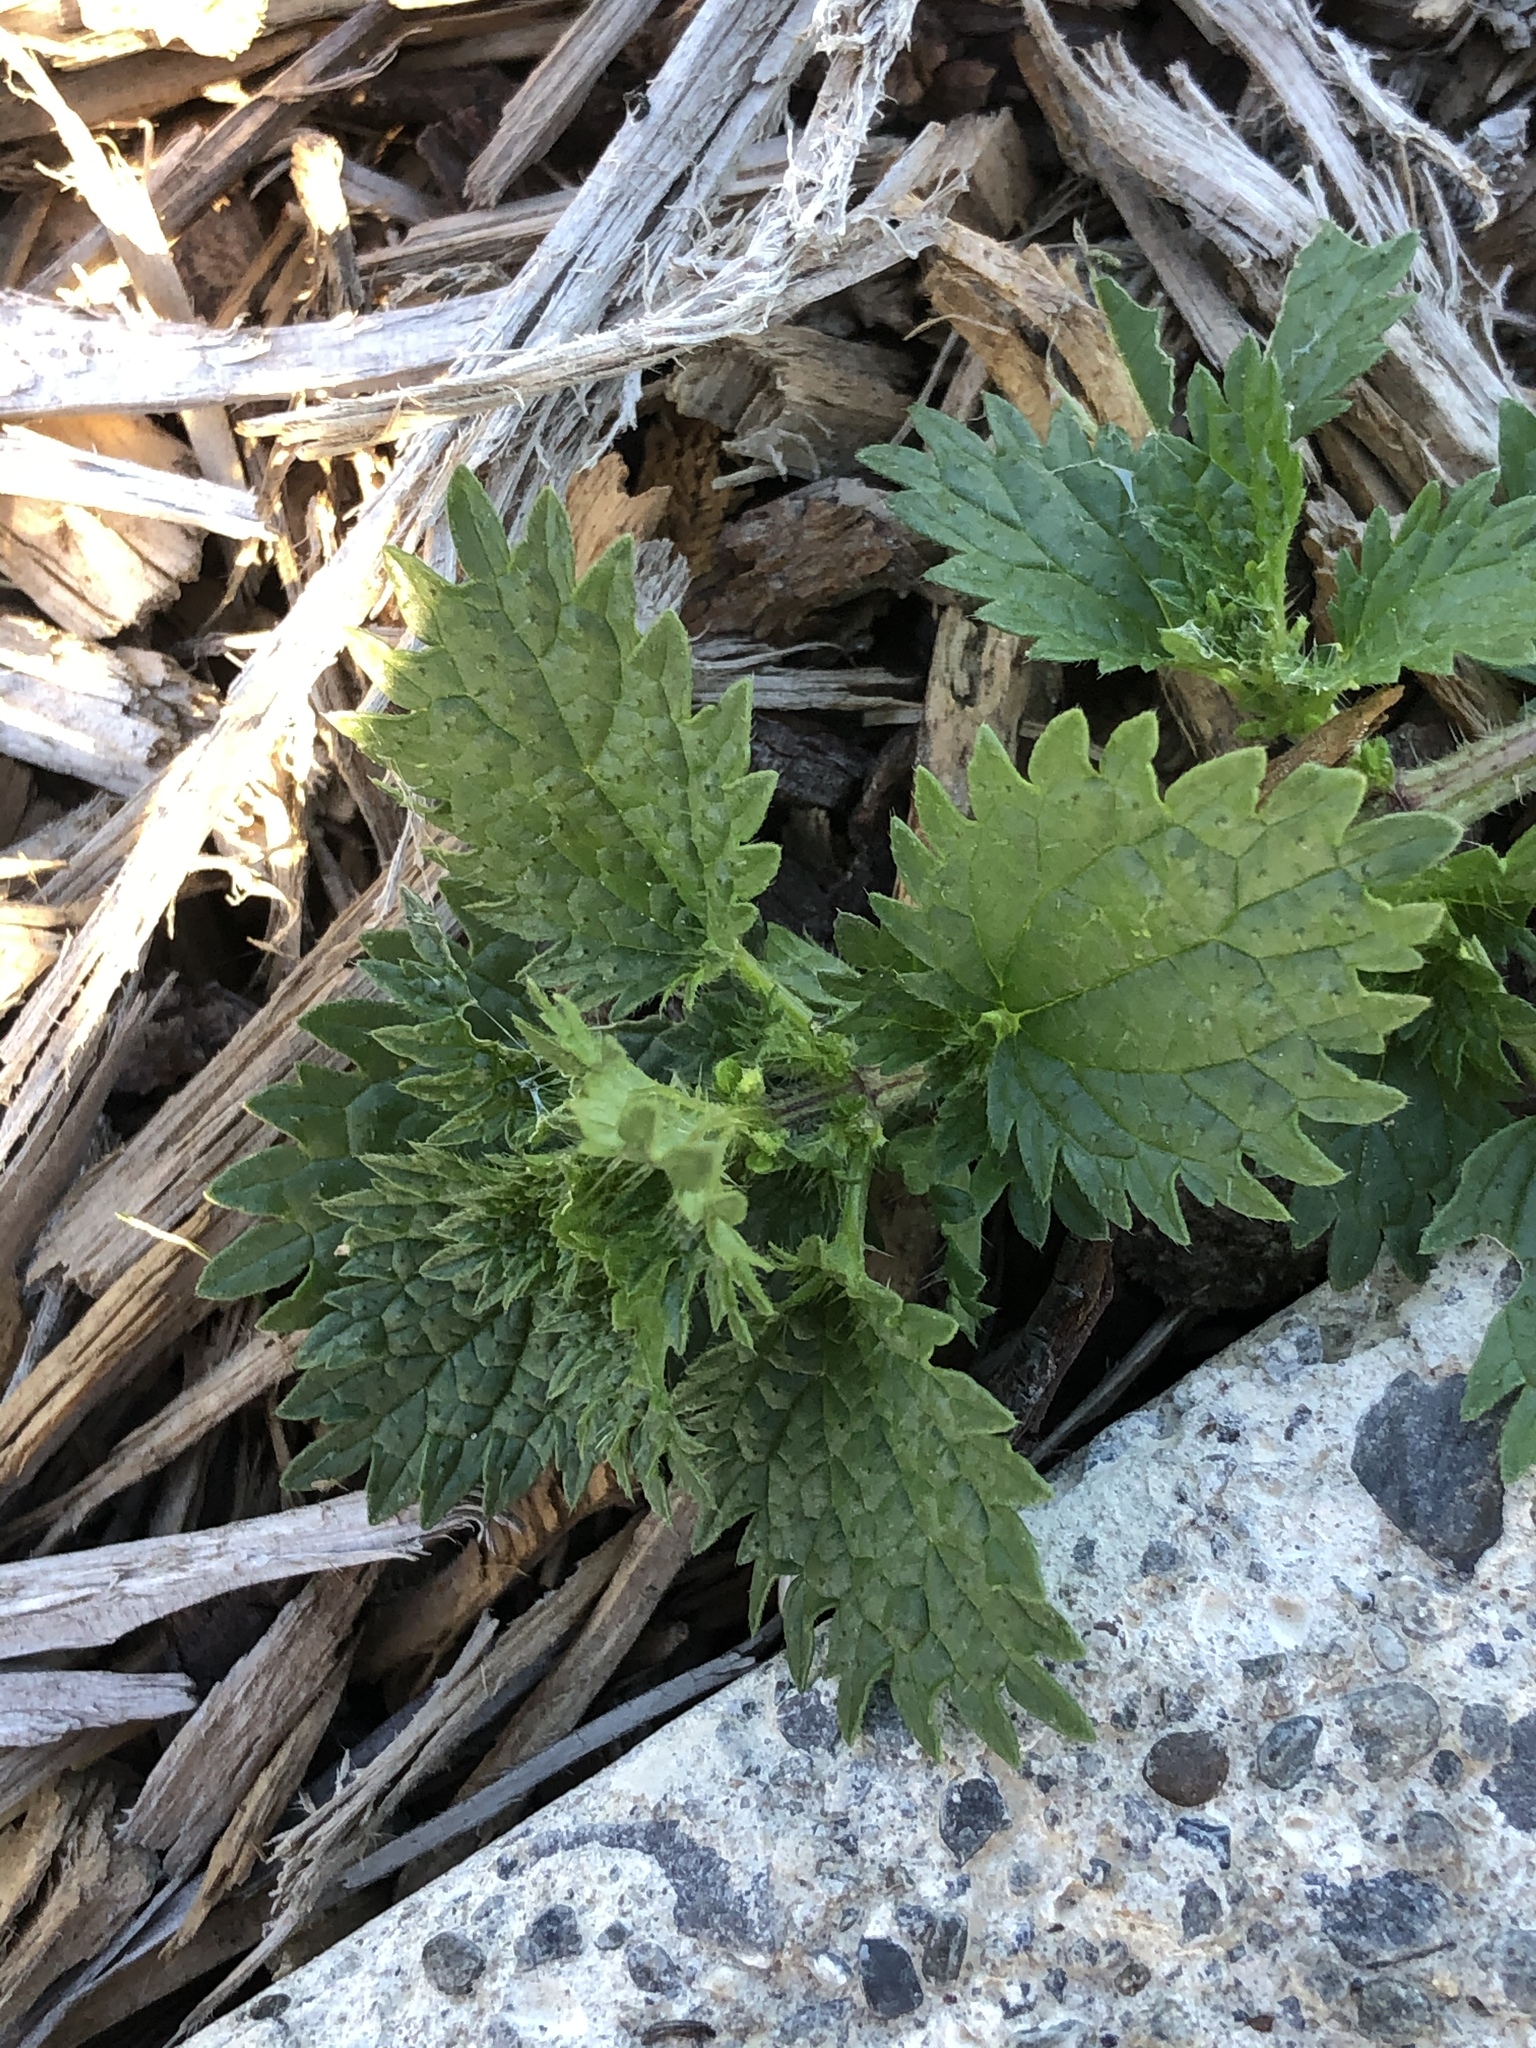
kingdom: Plantae
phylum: Tracheophyta
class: Magnoliopsida
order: Rosales
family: Urticaceae
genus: Urtica
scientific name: Urtica urens
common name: Dwarf nettle
